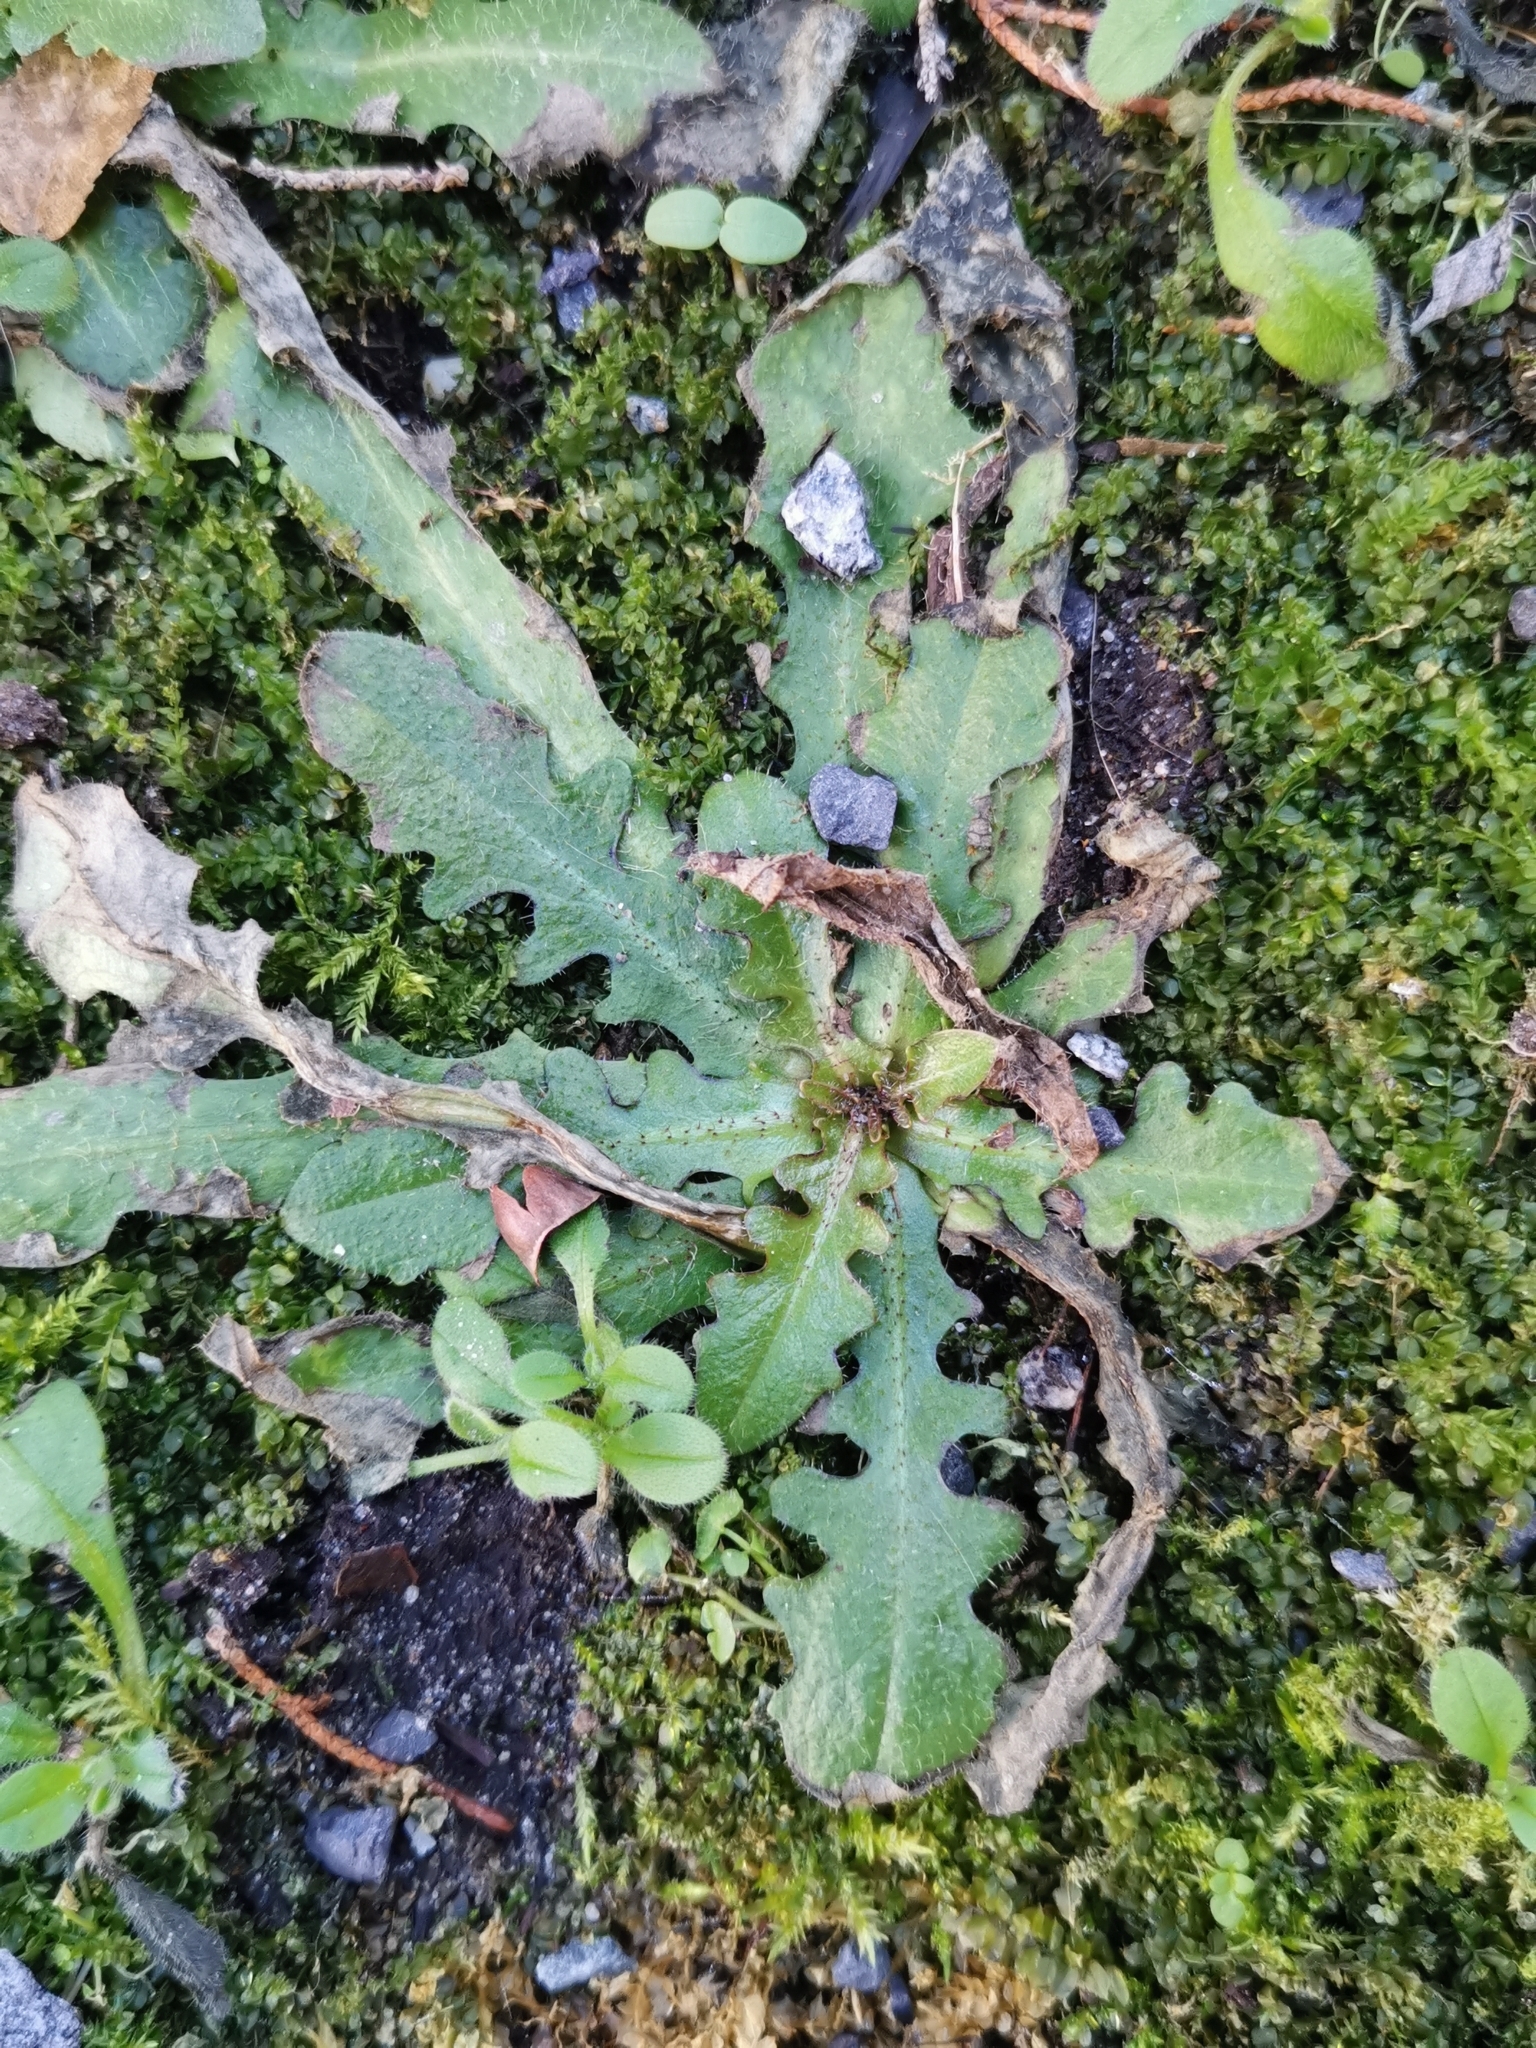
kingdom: Plantae
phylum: Tracheophyta
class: Magnoliopsida
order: Asterales
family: Asteraceae
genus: Hypochaeris
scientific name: Hypochaeris radicata
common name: Flatweed
